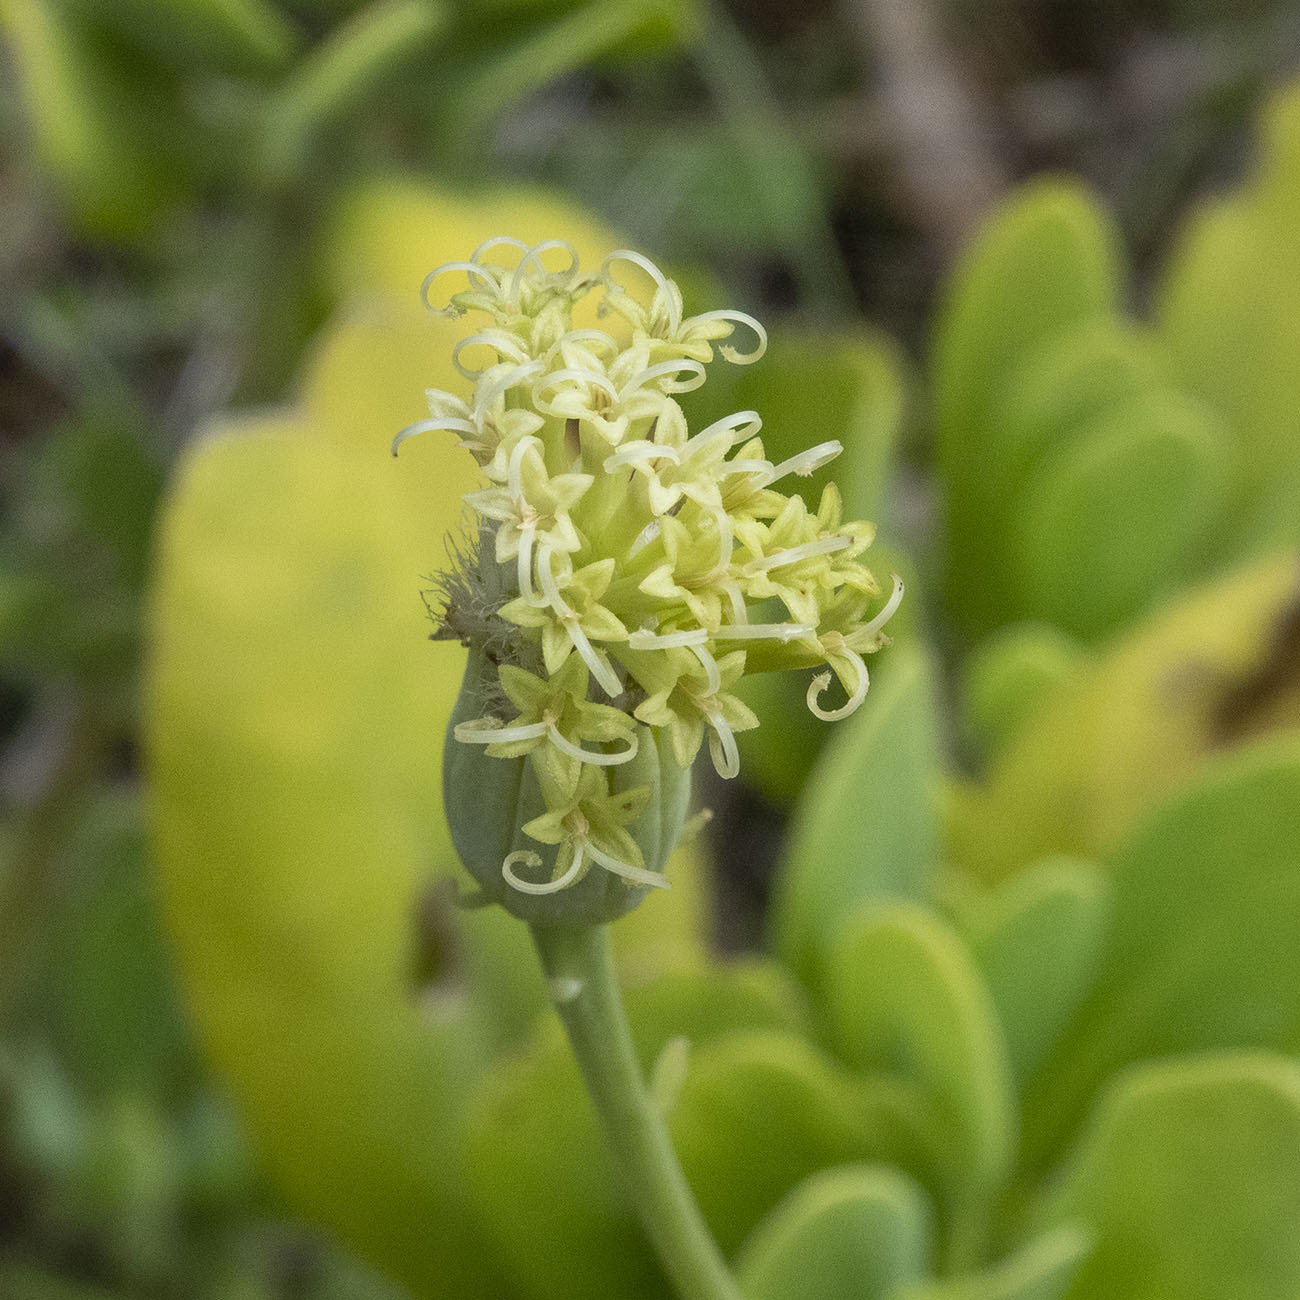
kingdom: Plantae
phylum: Tracheophyta
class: Magnoliopsida
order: Asterales
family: Asteraceae
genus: Kleinia
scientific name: Kleinia grandiflora
